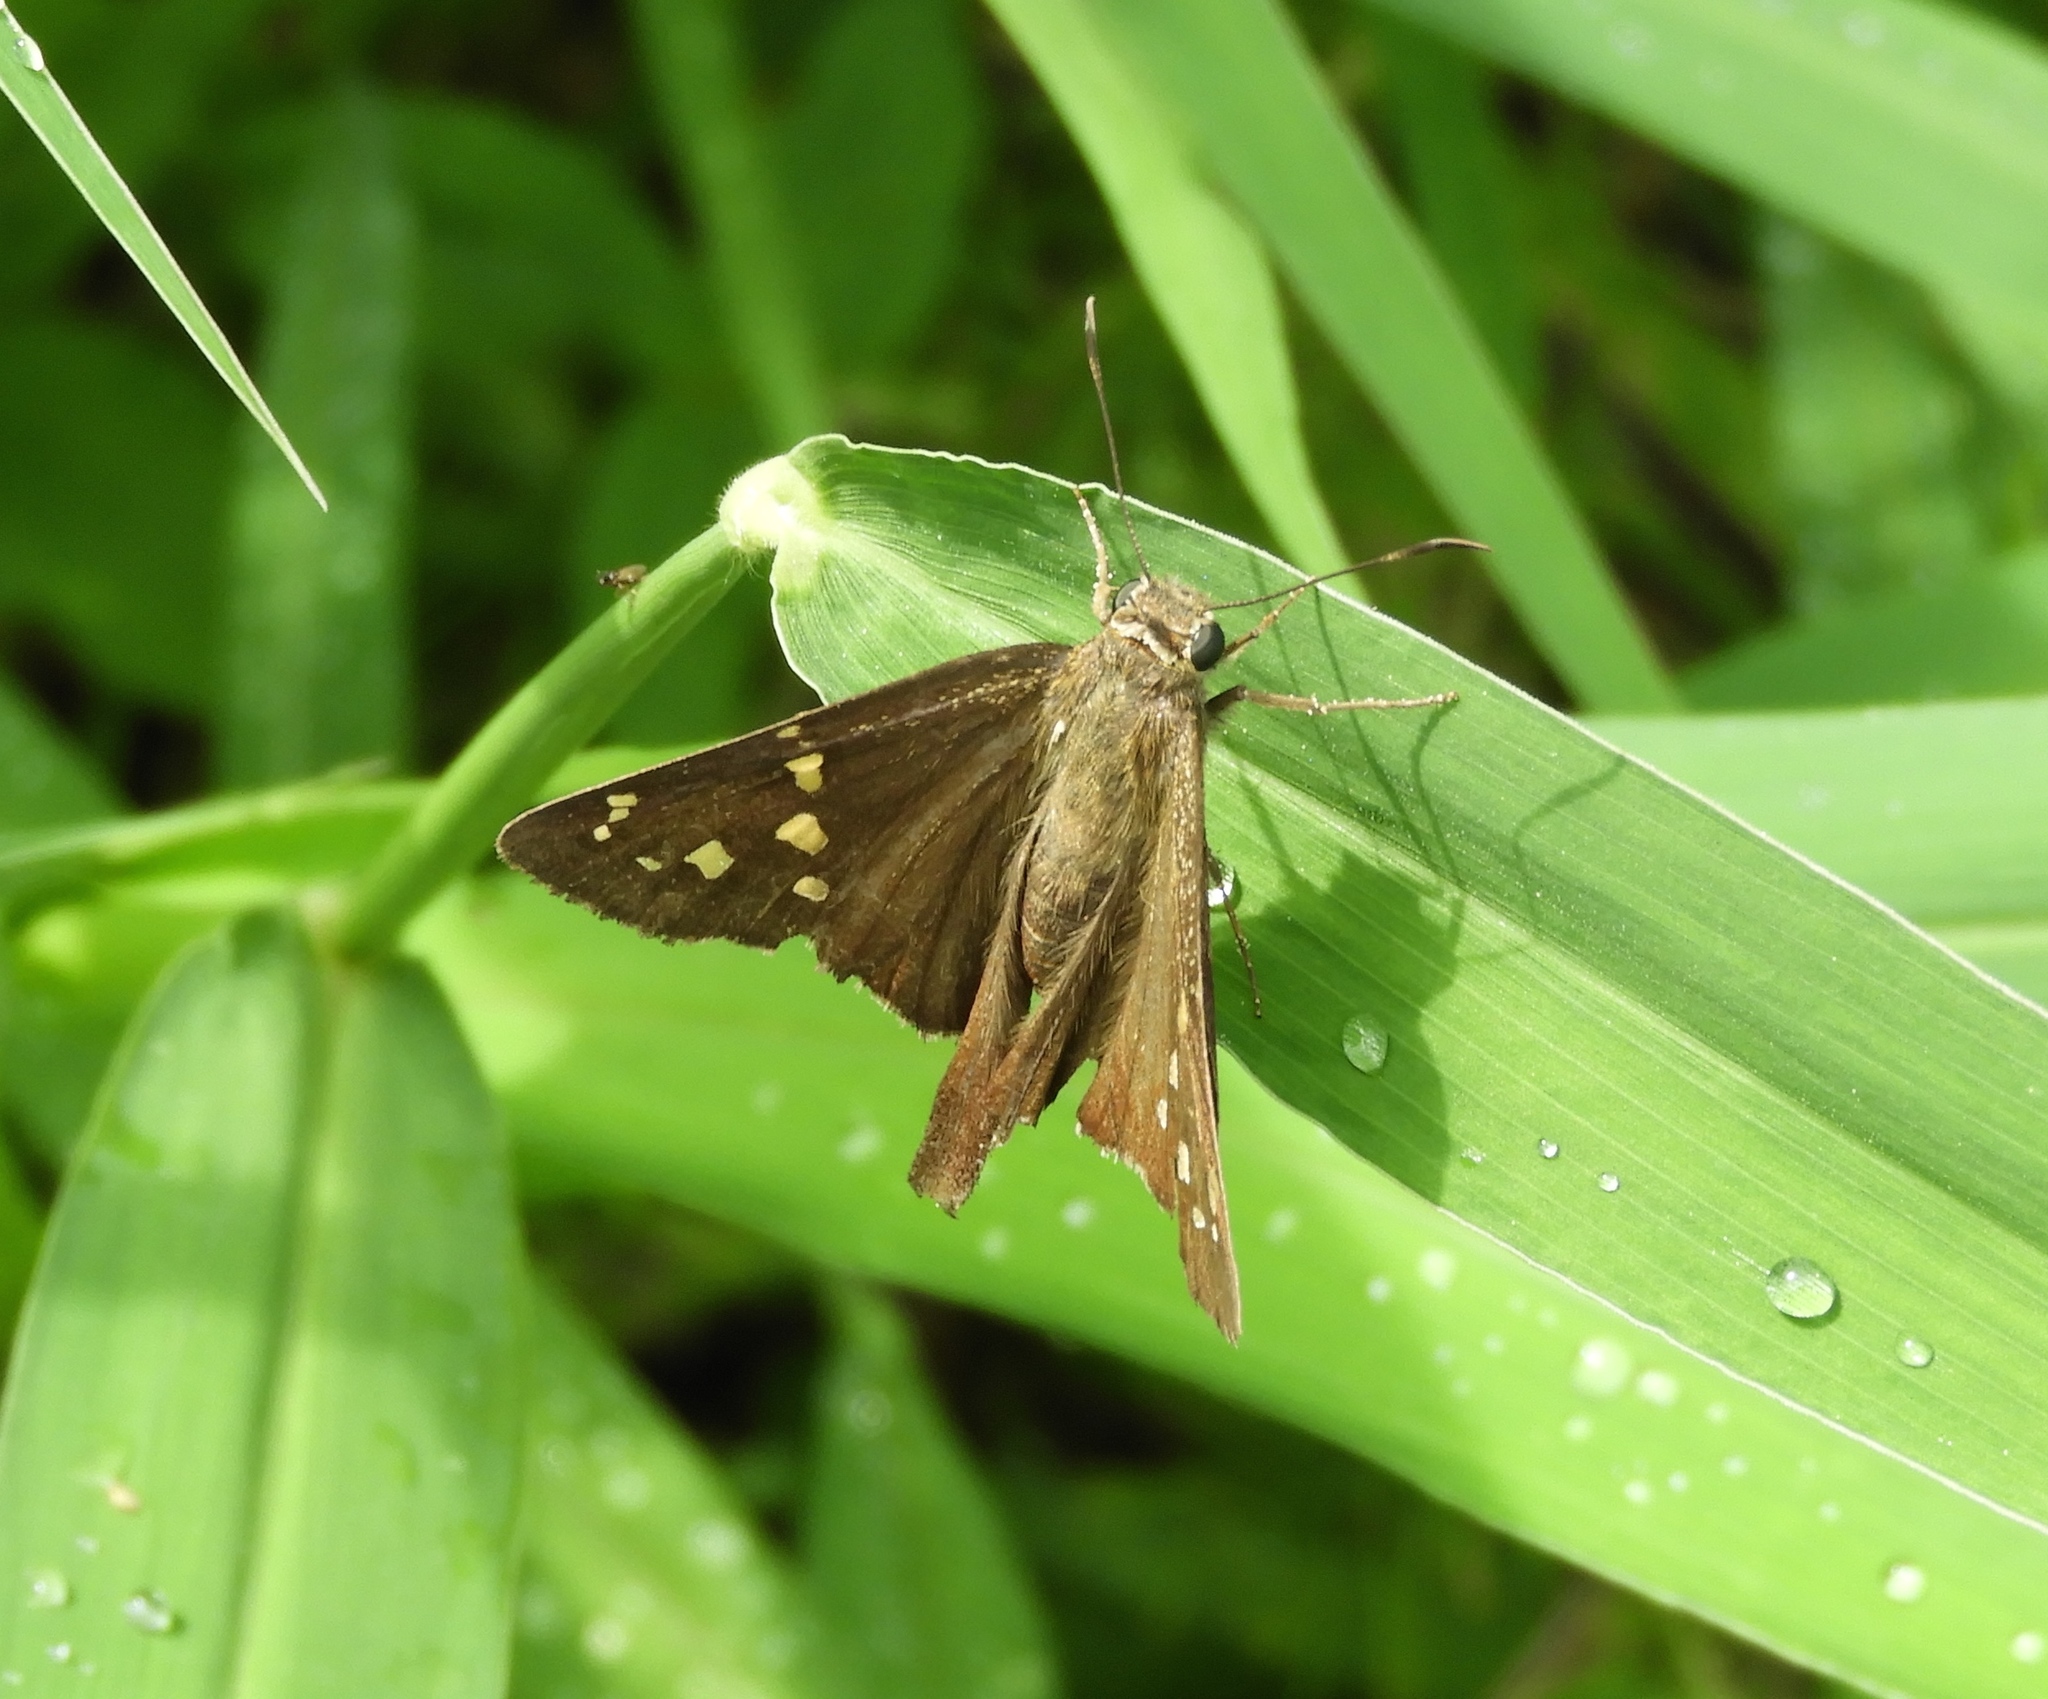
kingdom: Animalia
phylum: Arthropoda
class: Insecta
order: Lepidoptera
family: Hesperiidae
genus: Thorybes
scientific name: Thorybes
